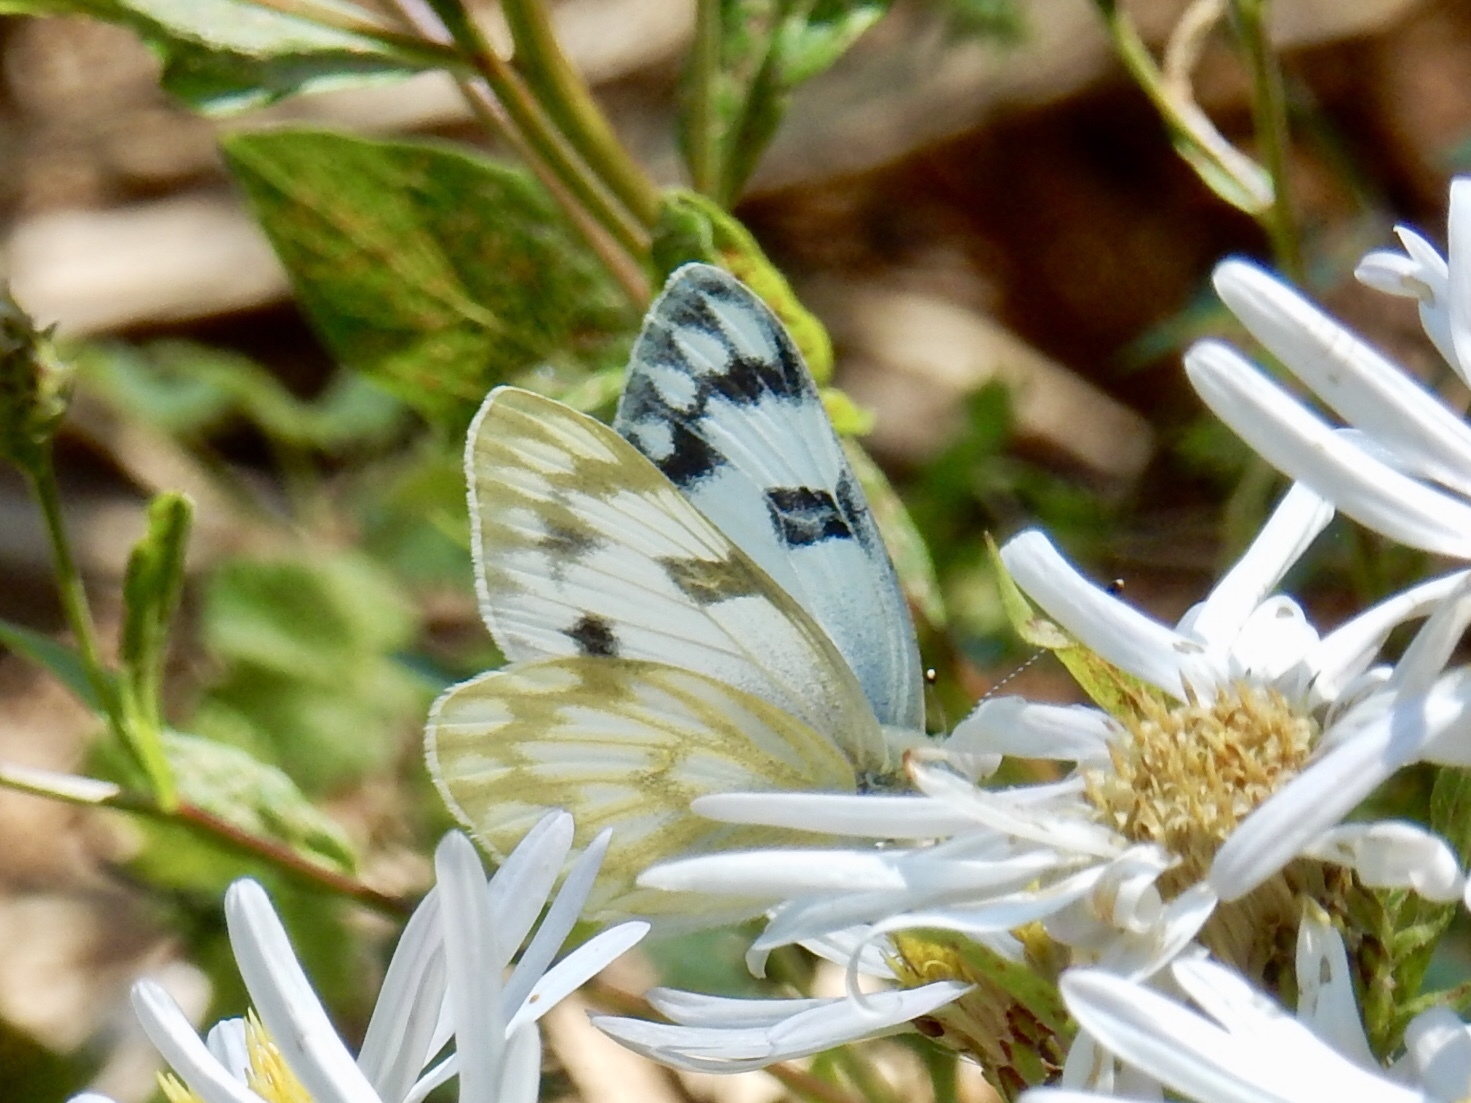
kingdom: Animalia
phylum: Arthropoda
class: Insecta
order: Lepidoptera
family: Pieridae
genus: Pontia
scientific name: Pontia occidentalis
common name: Western white
